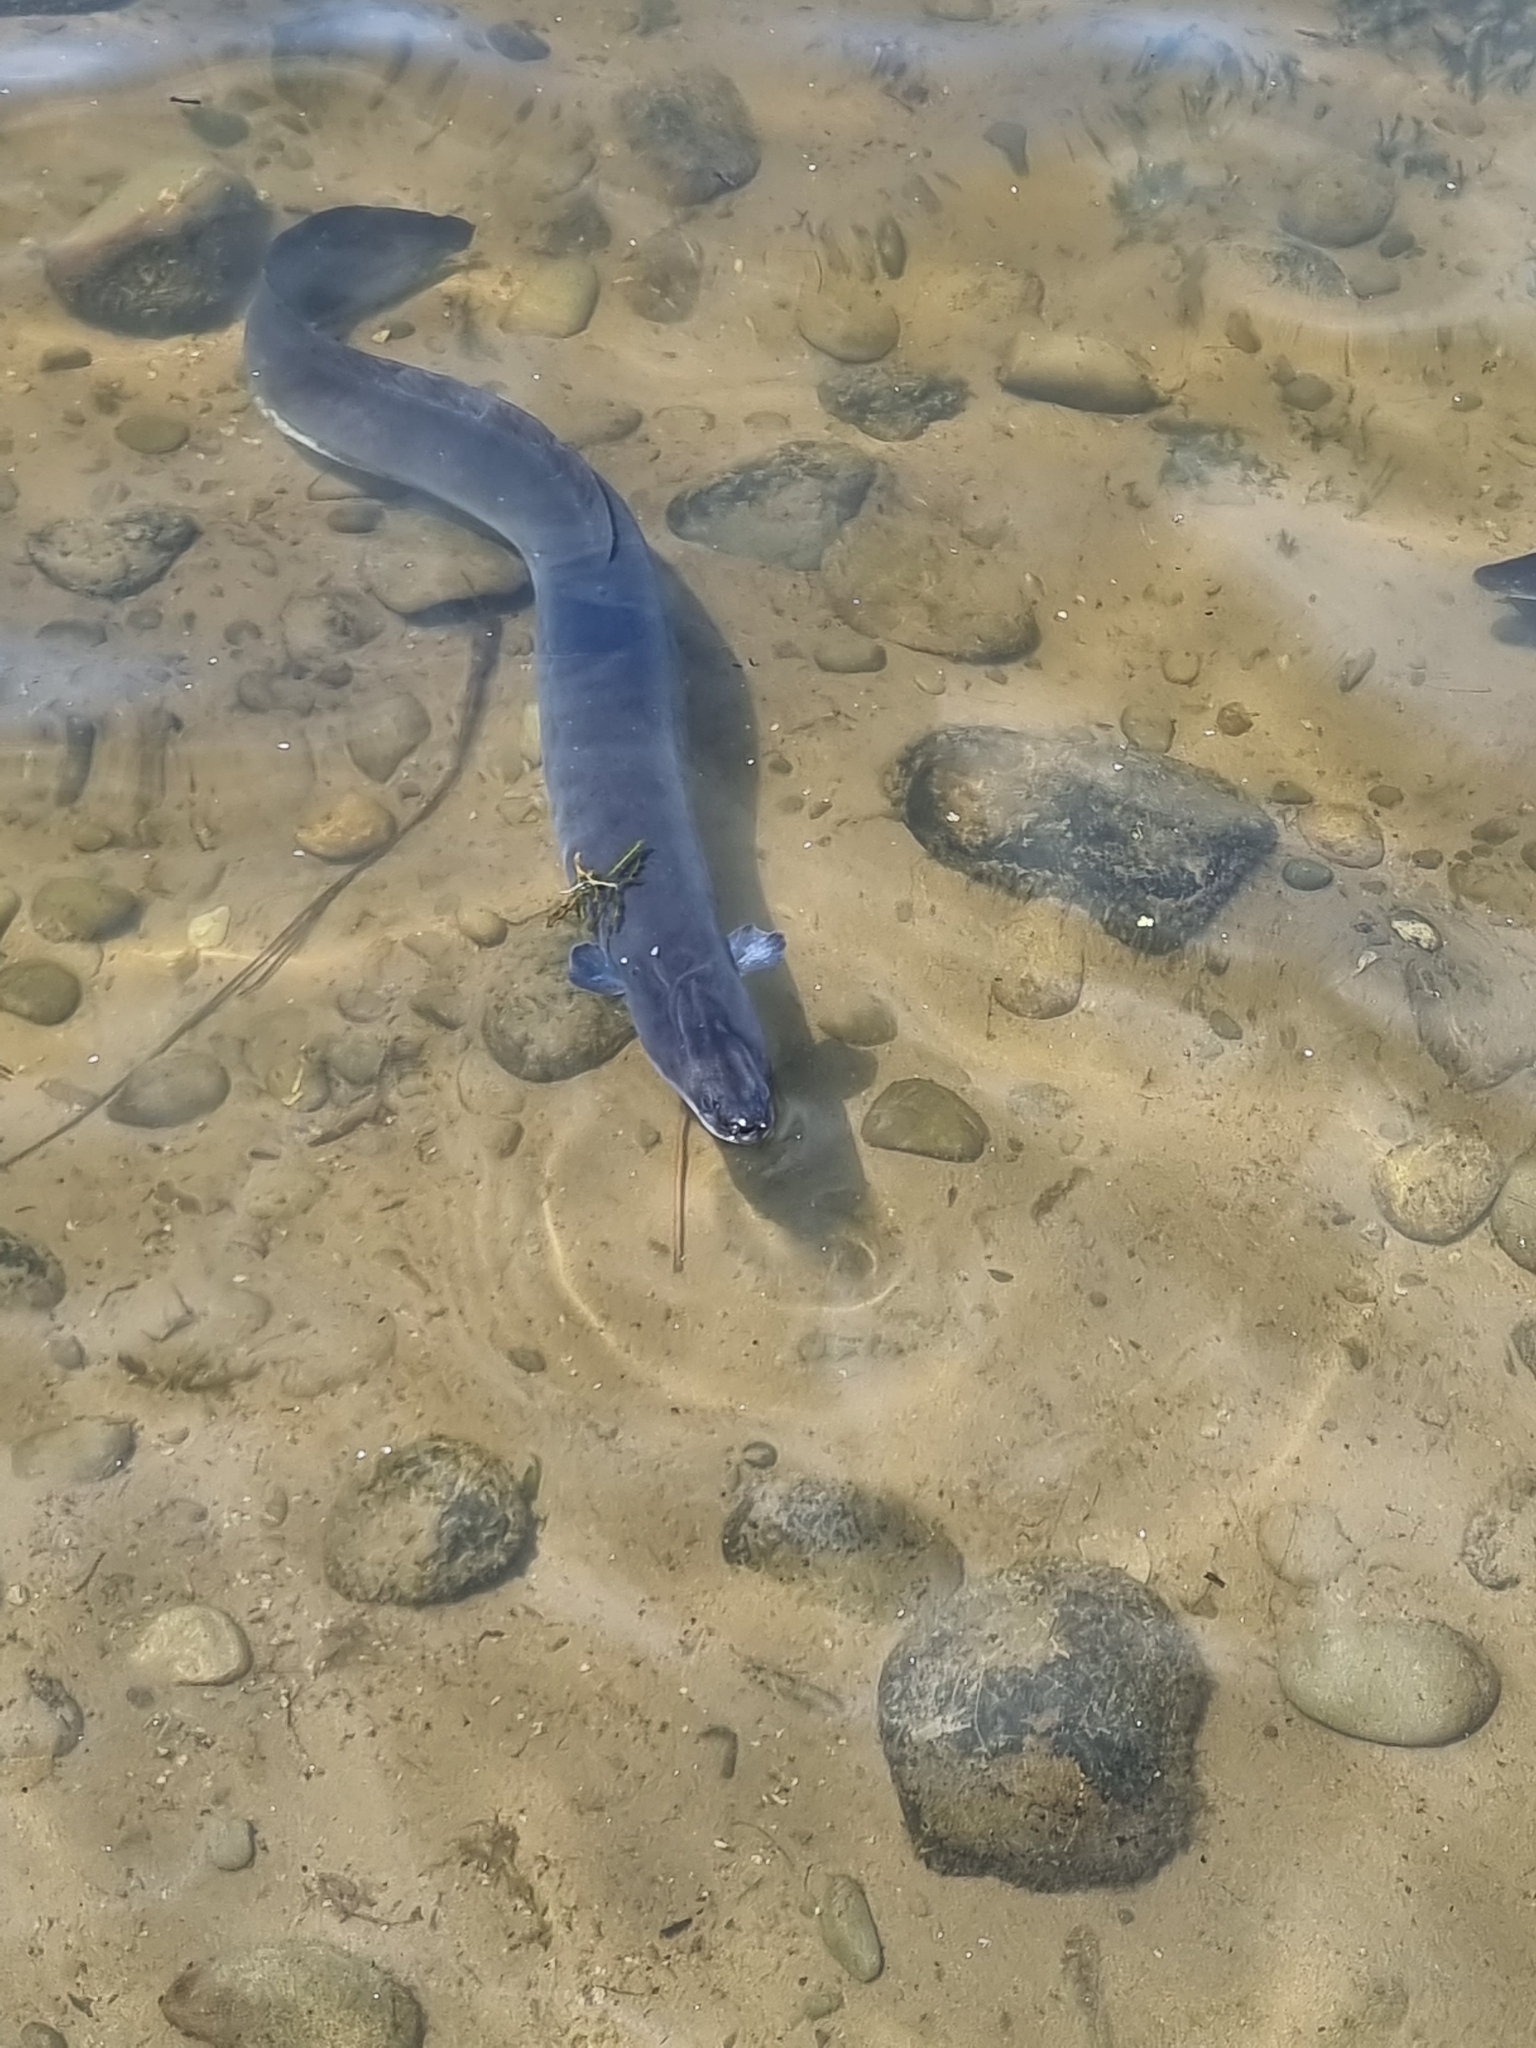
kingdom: Animalia
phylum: Chordata
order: Anguilliformes
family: Anguillidae
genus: Anguilla
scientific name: Anguilla australis
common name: Shortfin eel
